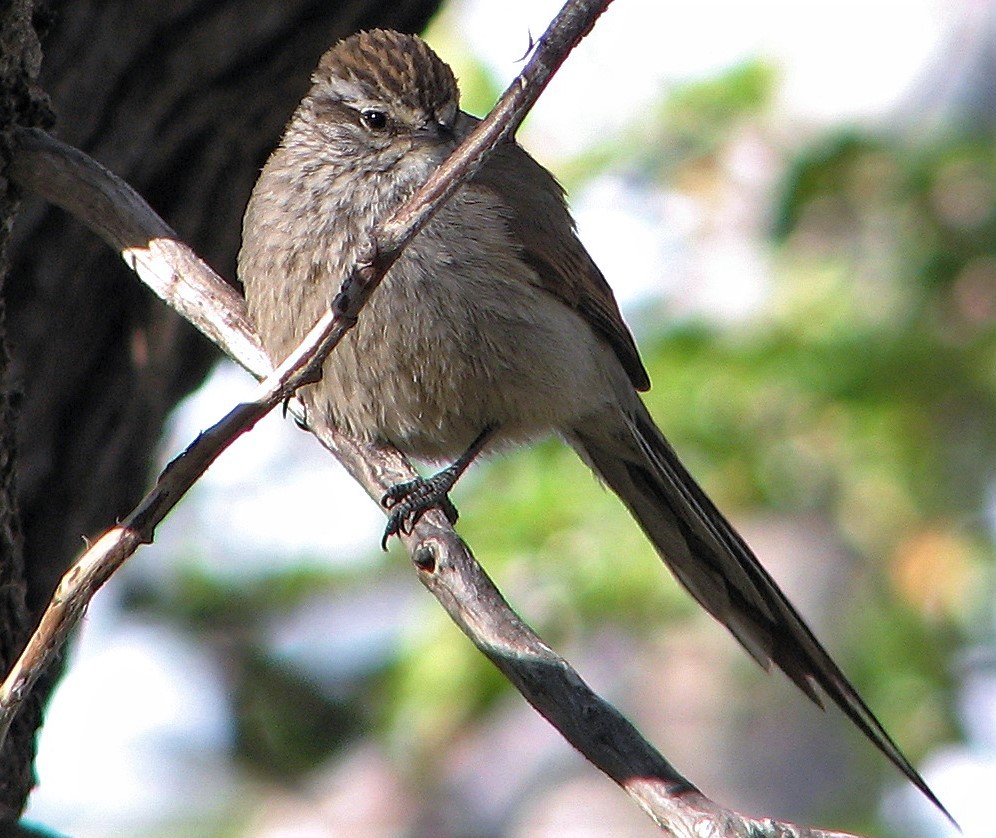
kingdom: Animalia
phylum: Chordata
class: Aves
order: Passeriformes
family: Furnariidae
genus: Leptasthenura
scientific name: Leptasthenura aegithaloides
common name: Plain-mantled tit-spinetail
